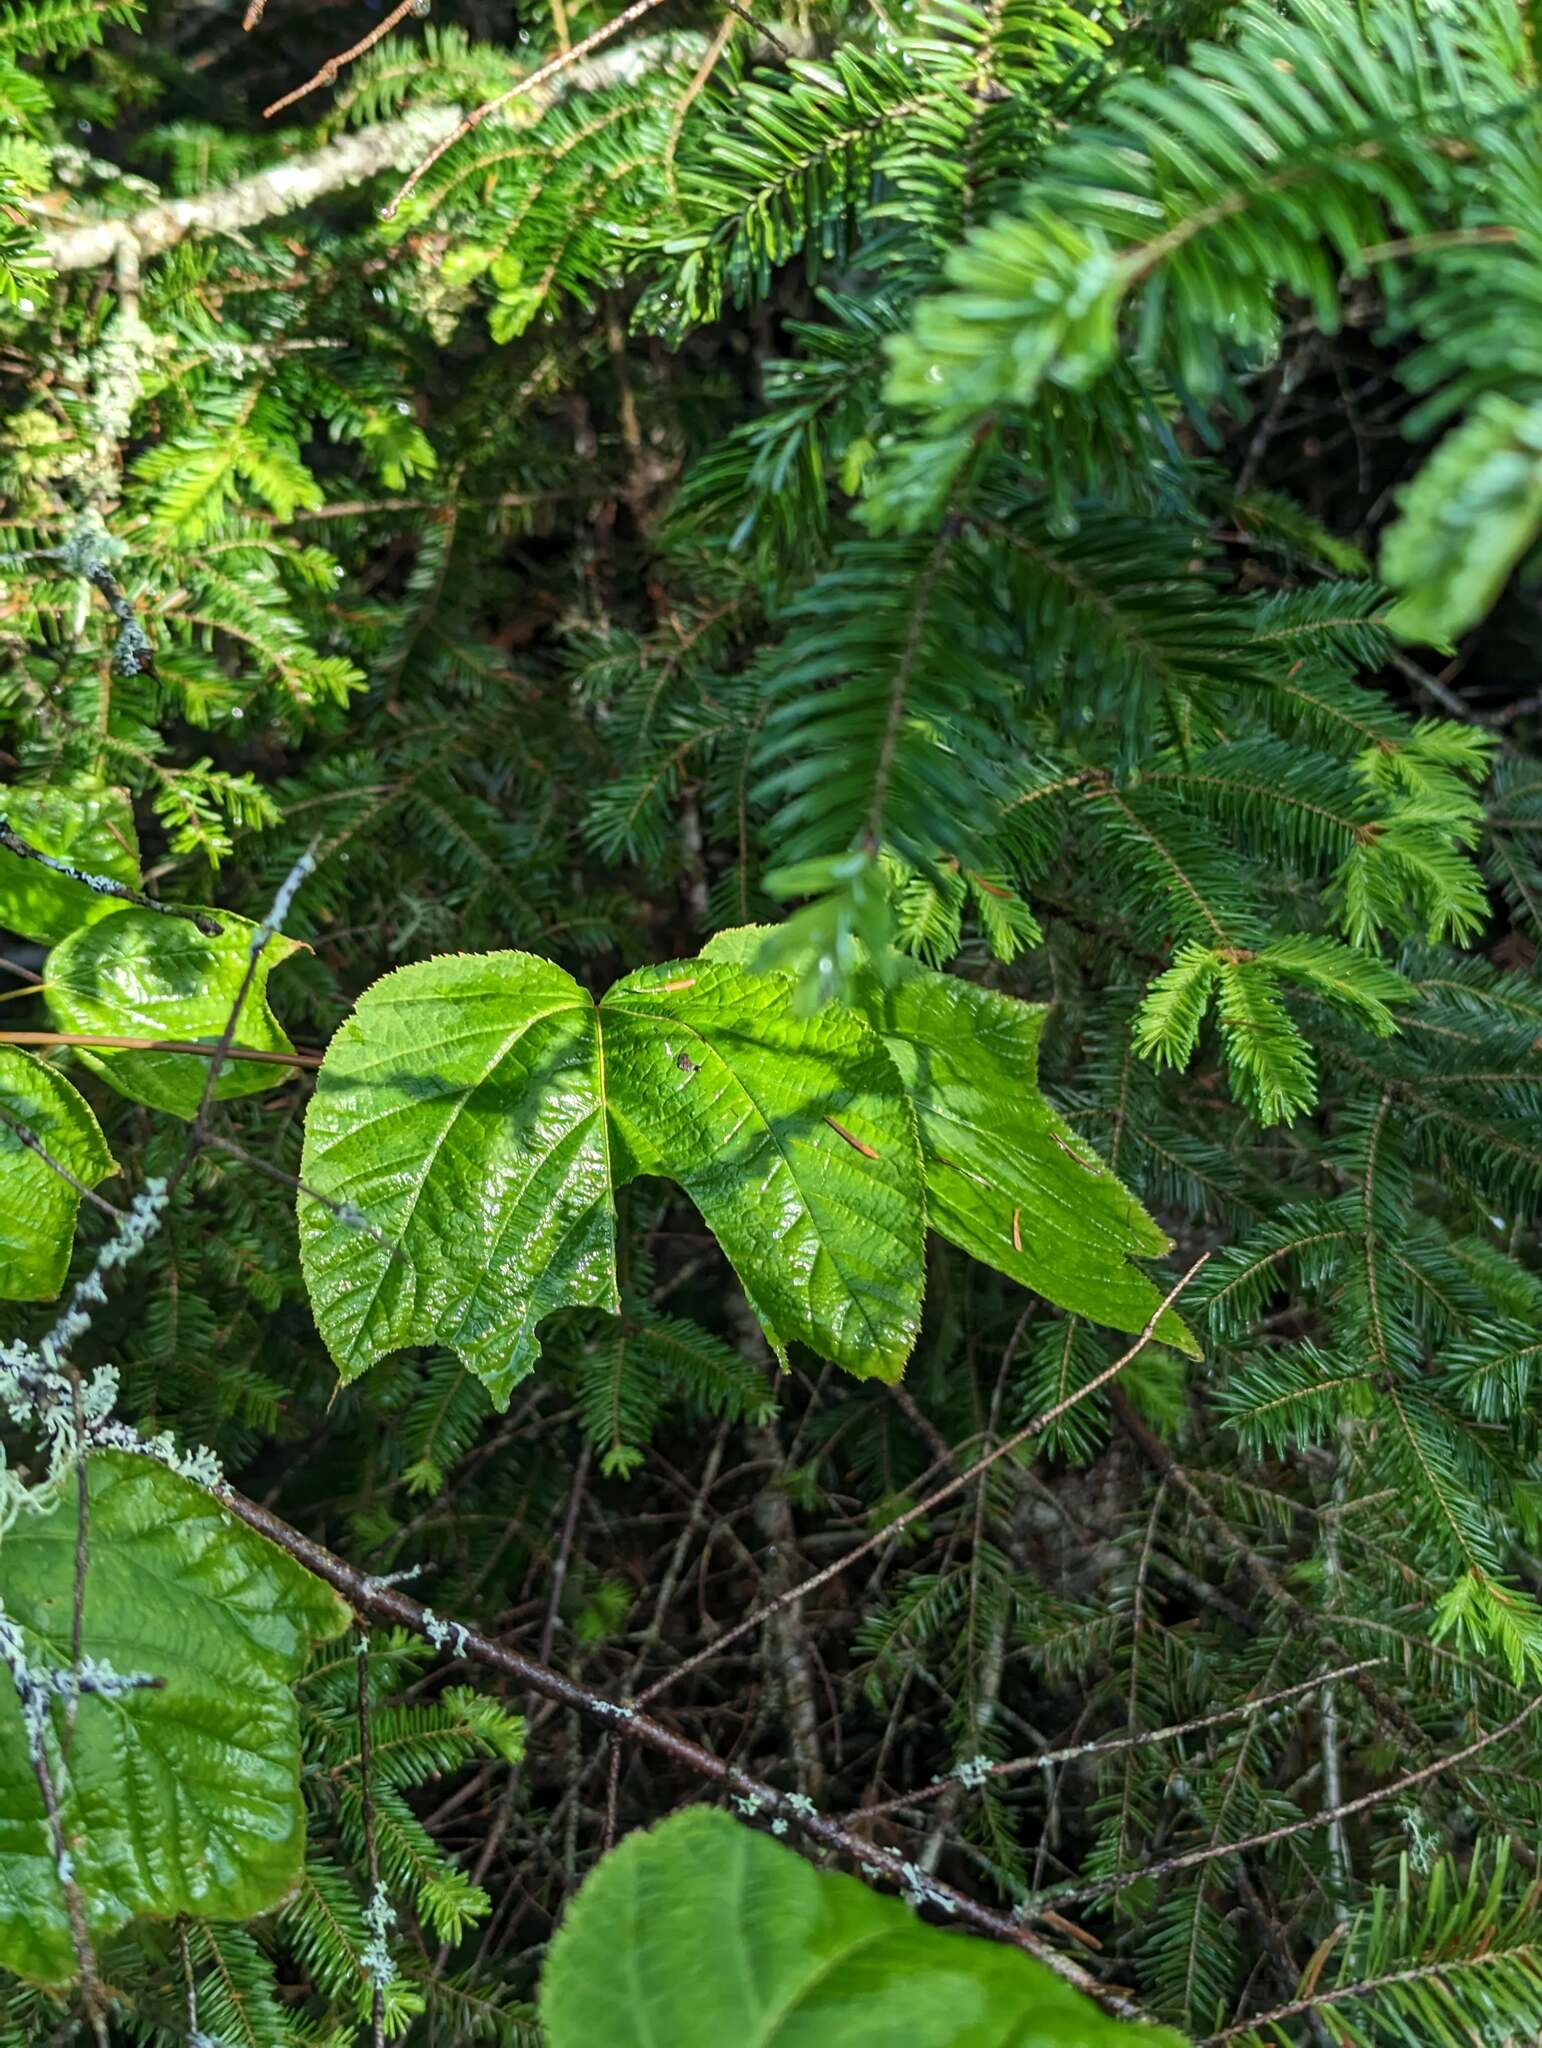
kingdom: Plantae
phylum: Tracheophyta
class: Magnoliopsida
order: Sapindales
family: Sapindaceae
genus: Acer
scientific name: Acer pensylvanicum
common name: Moosewood
